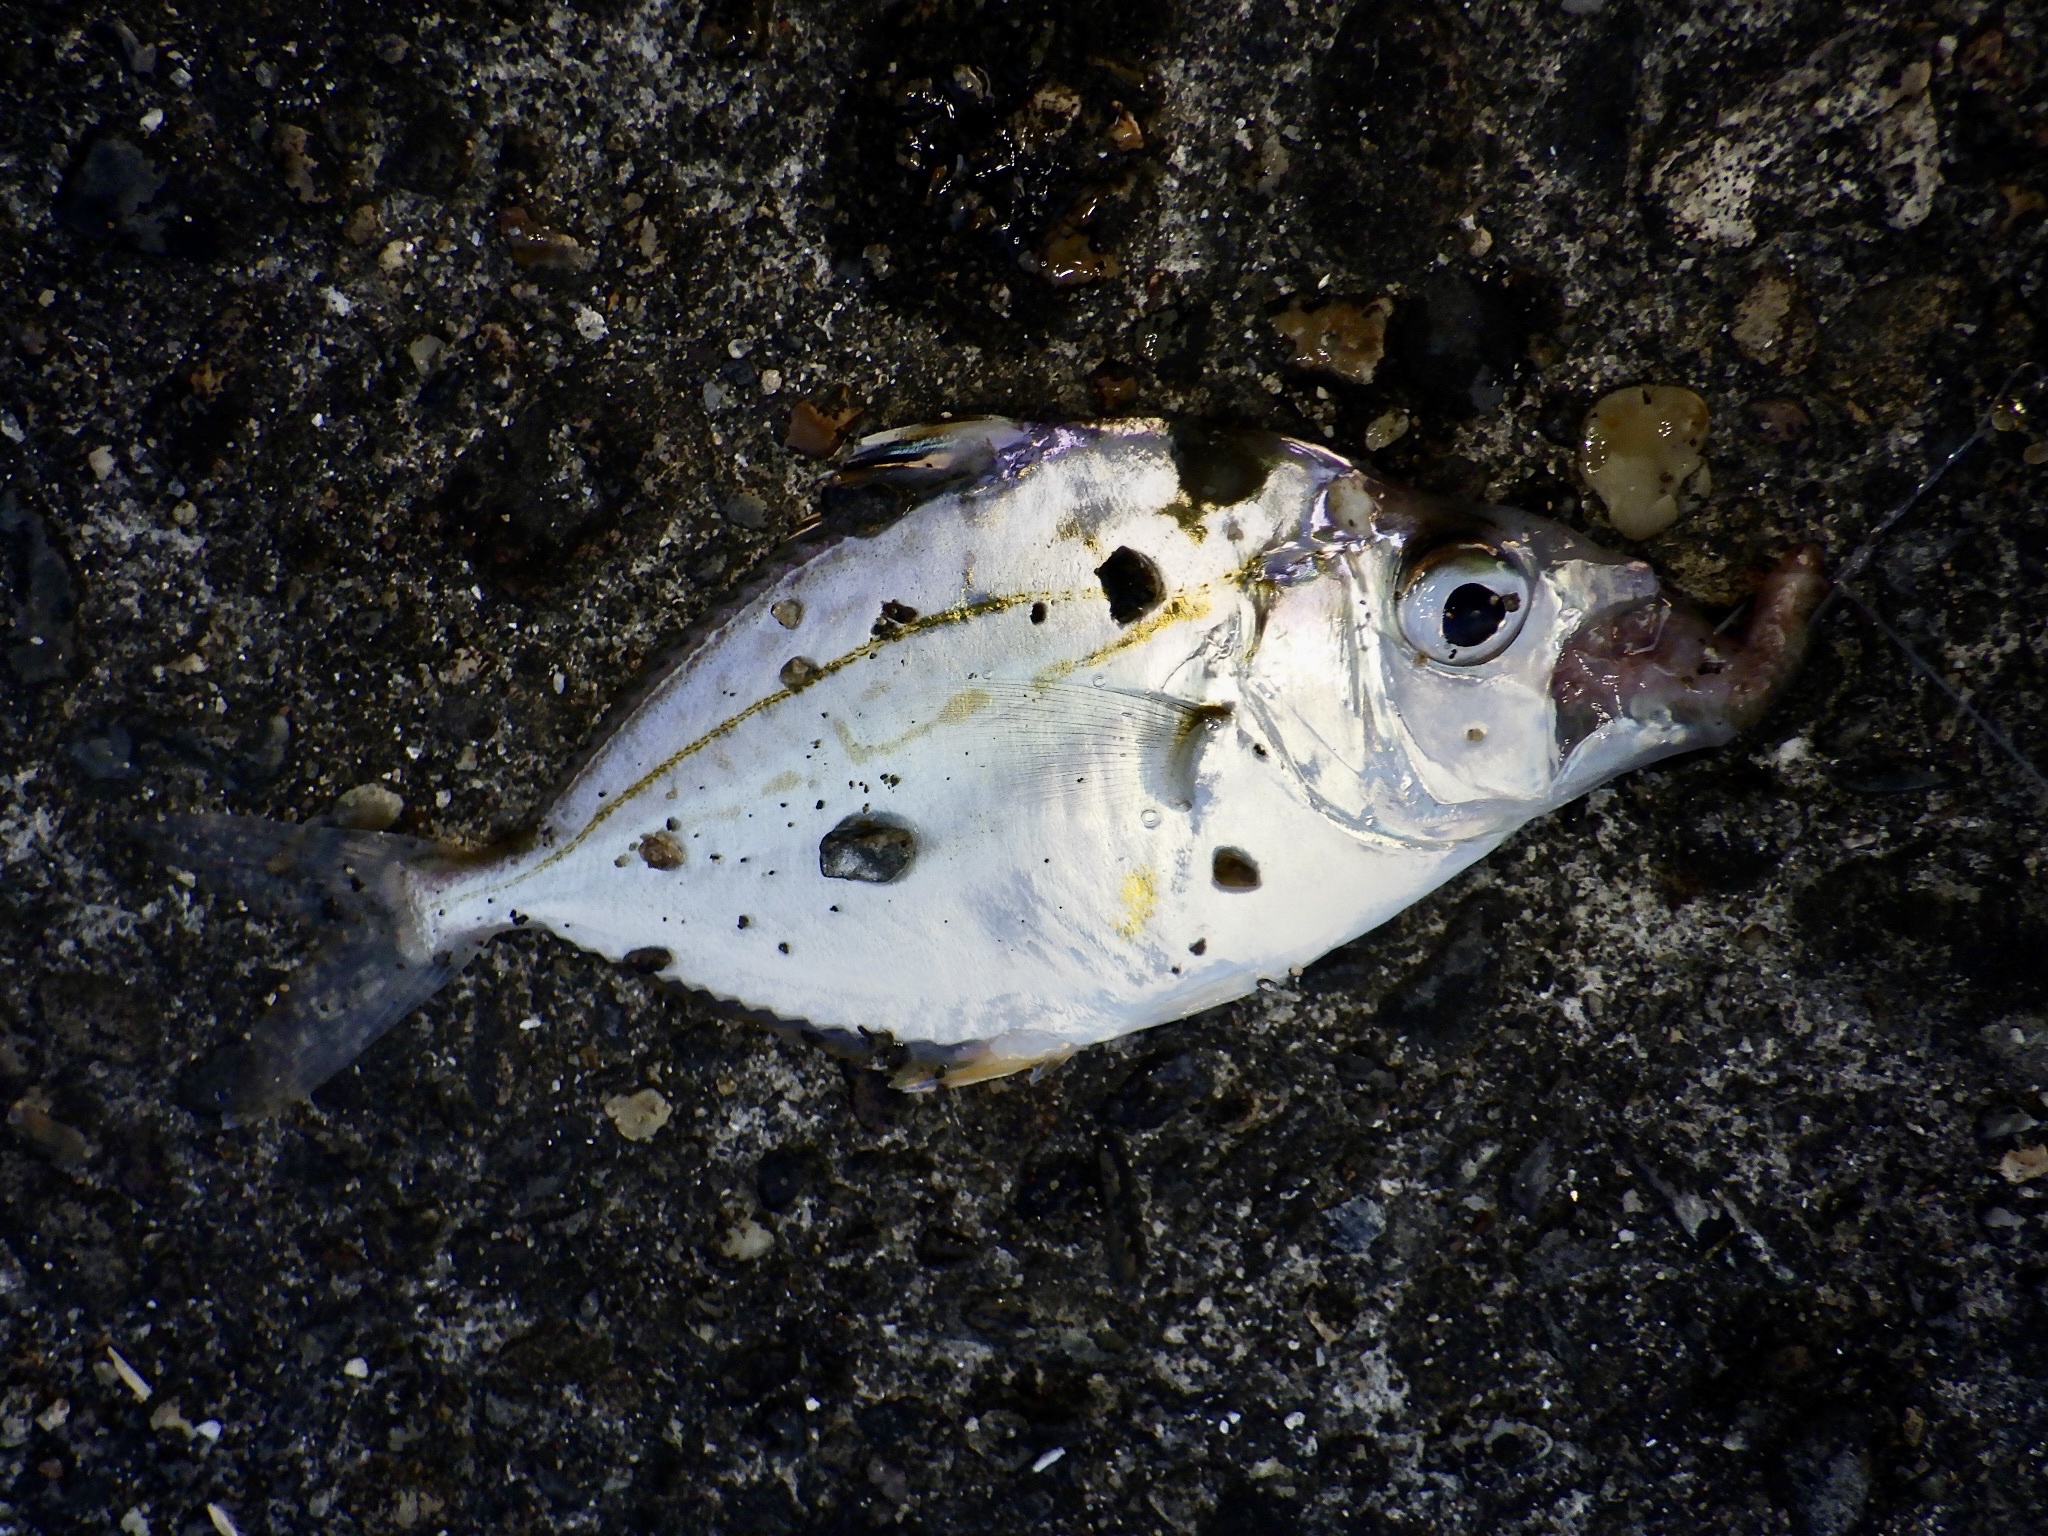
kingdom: Animalia
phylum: Chordata
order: Perciformes
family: Leiognathidae
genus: Nuchequula
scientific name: Nuchequula nuchalis
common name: Spotnape ponyfish
